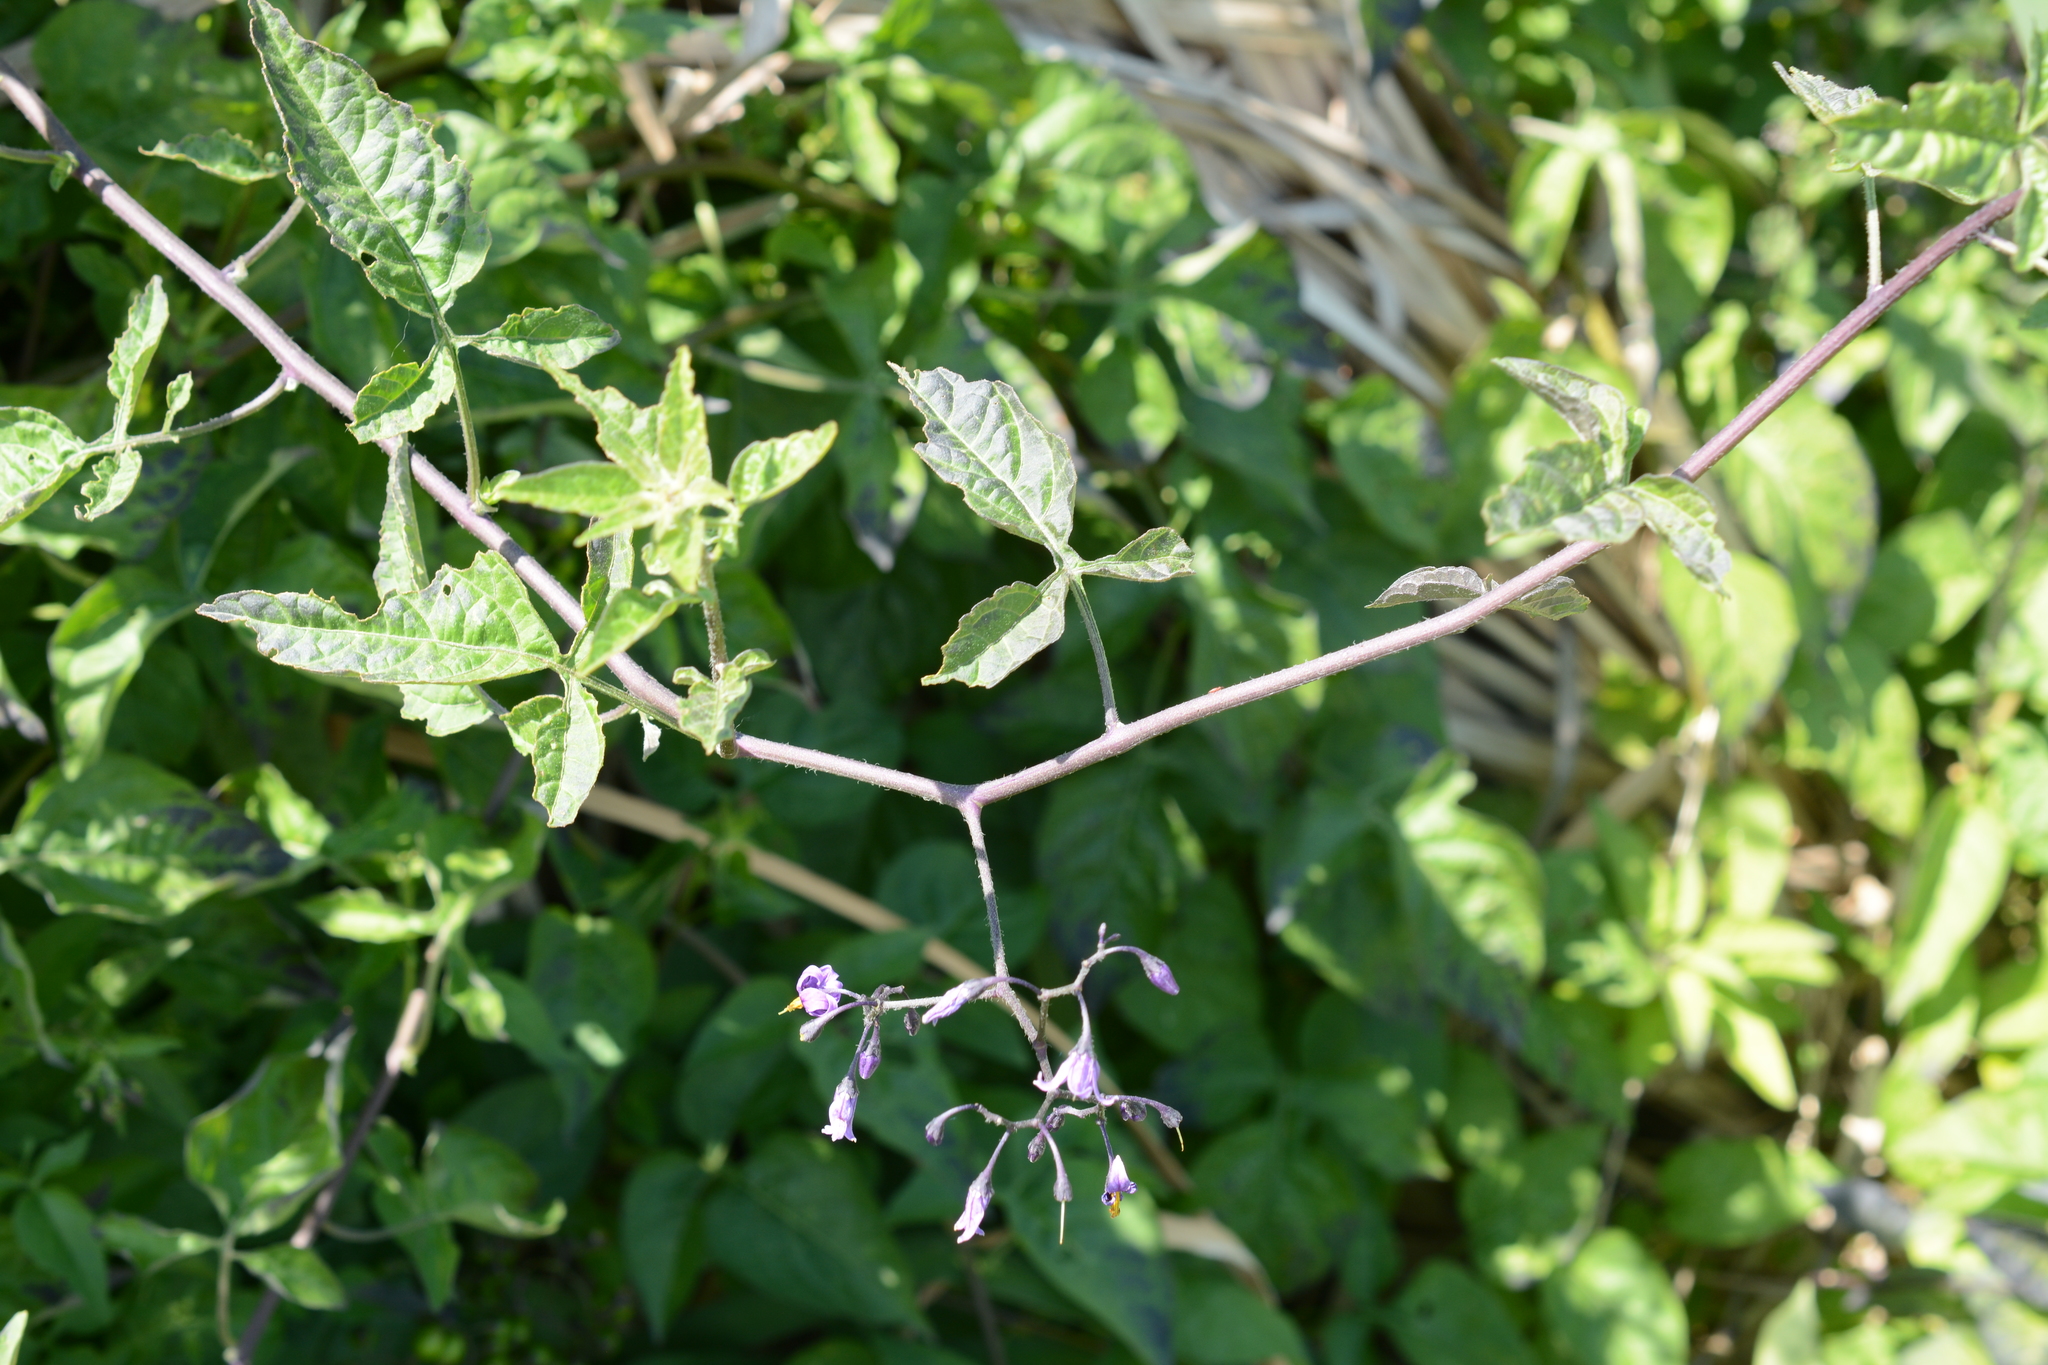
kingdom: Plantae
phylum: Tracheophyta
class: Magnoliopsida
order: Solanales
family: Solanaceae
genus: Solanum
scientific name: Solanum dulcamara
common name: Climbing nightshade
